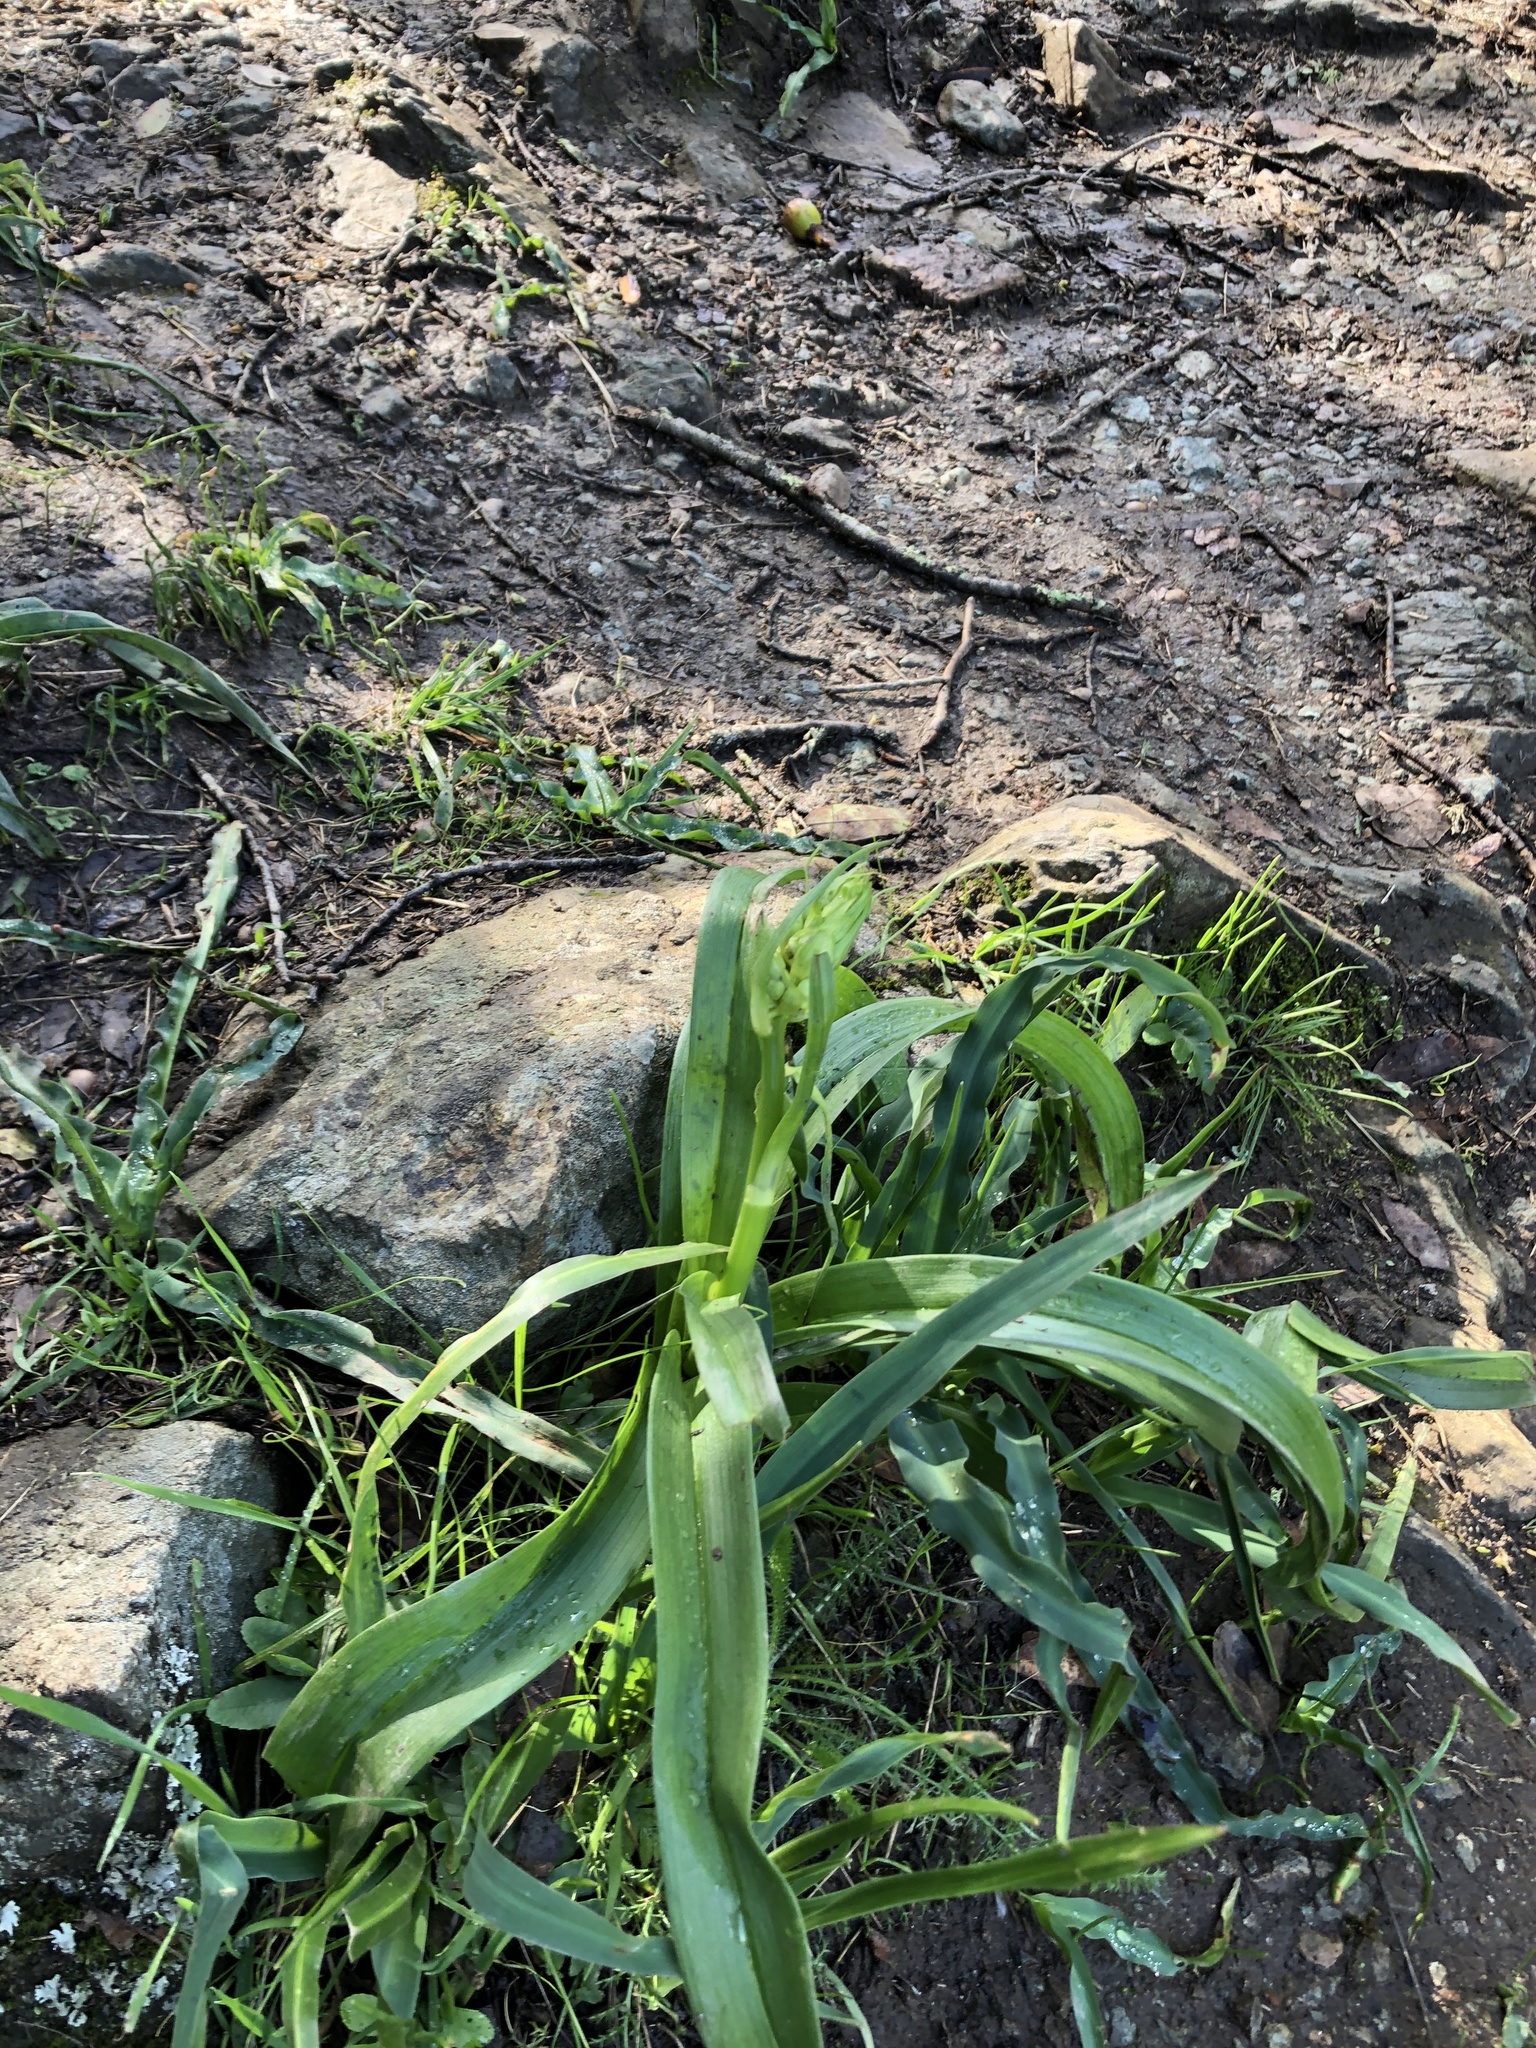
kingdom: Plantae
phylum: Tracheophyta
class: Liliopsida
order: Asparagales
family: Asparagaceae
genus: Chlorogalum
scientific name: Chlorogalum pomeridianum
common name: Amole
